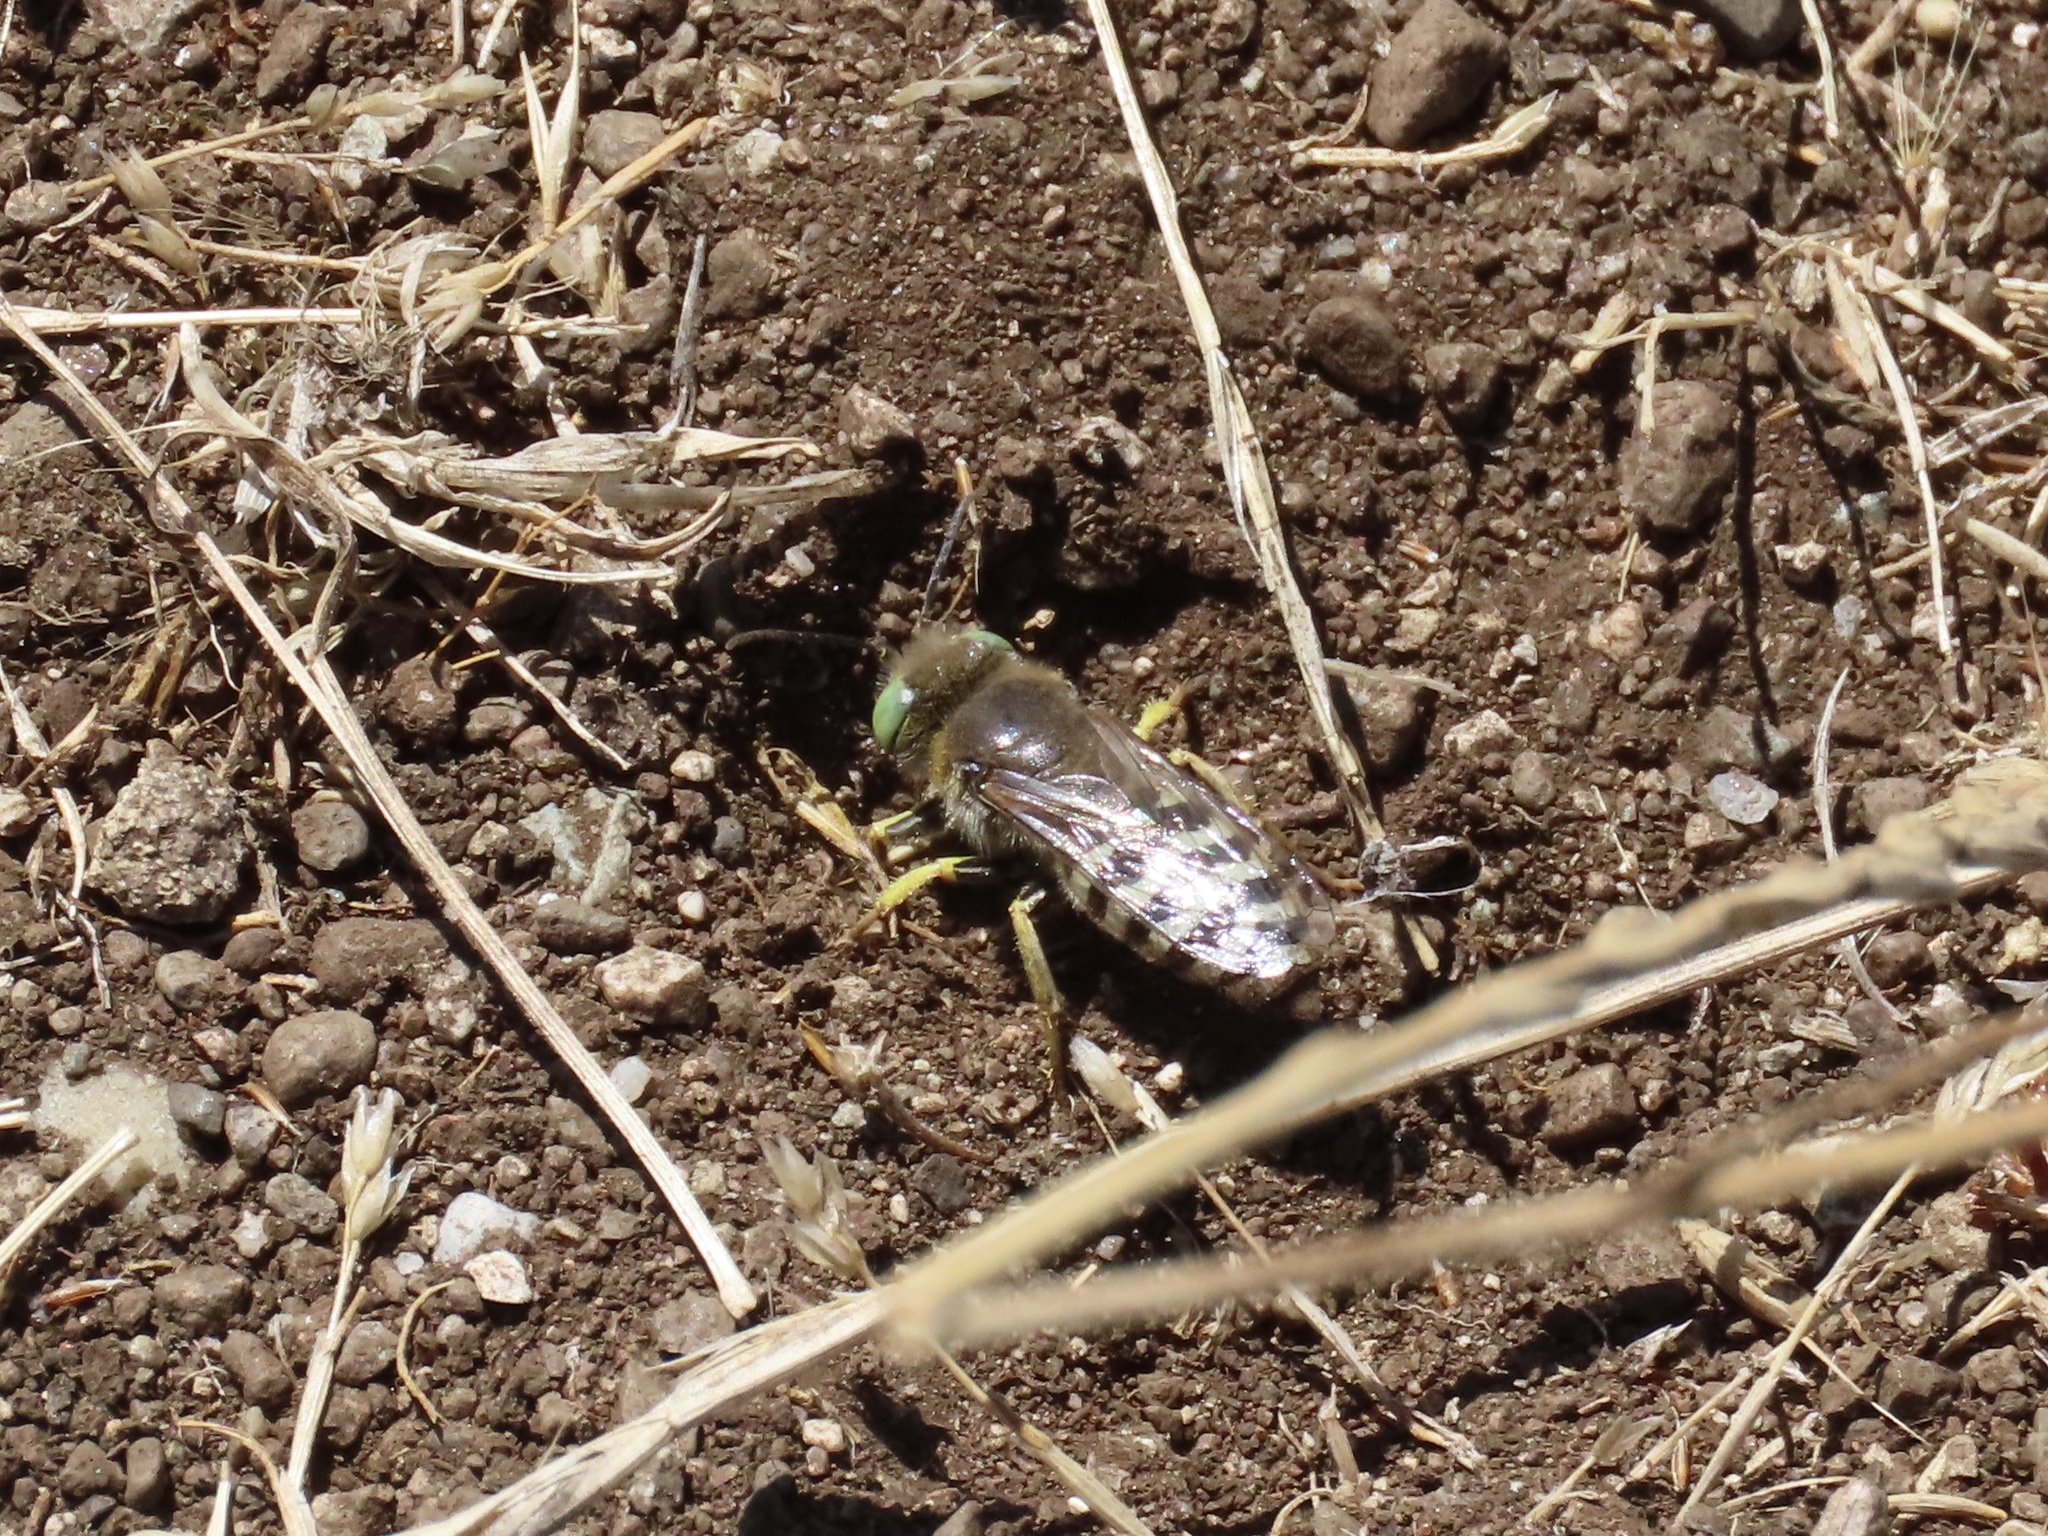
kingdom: Animalia
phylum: Arthropoda
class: Insecta
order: Hymenoptera
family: Crabronidae
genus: Bembix
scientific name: Bembix americana
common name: American sand wasp
